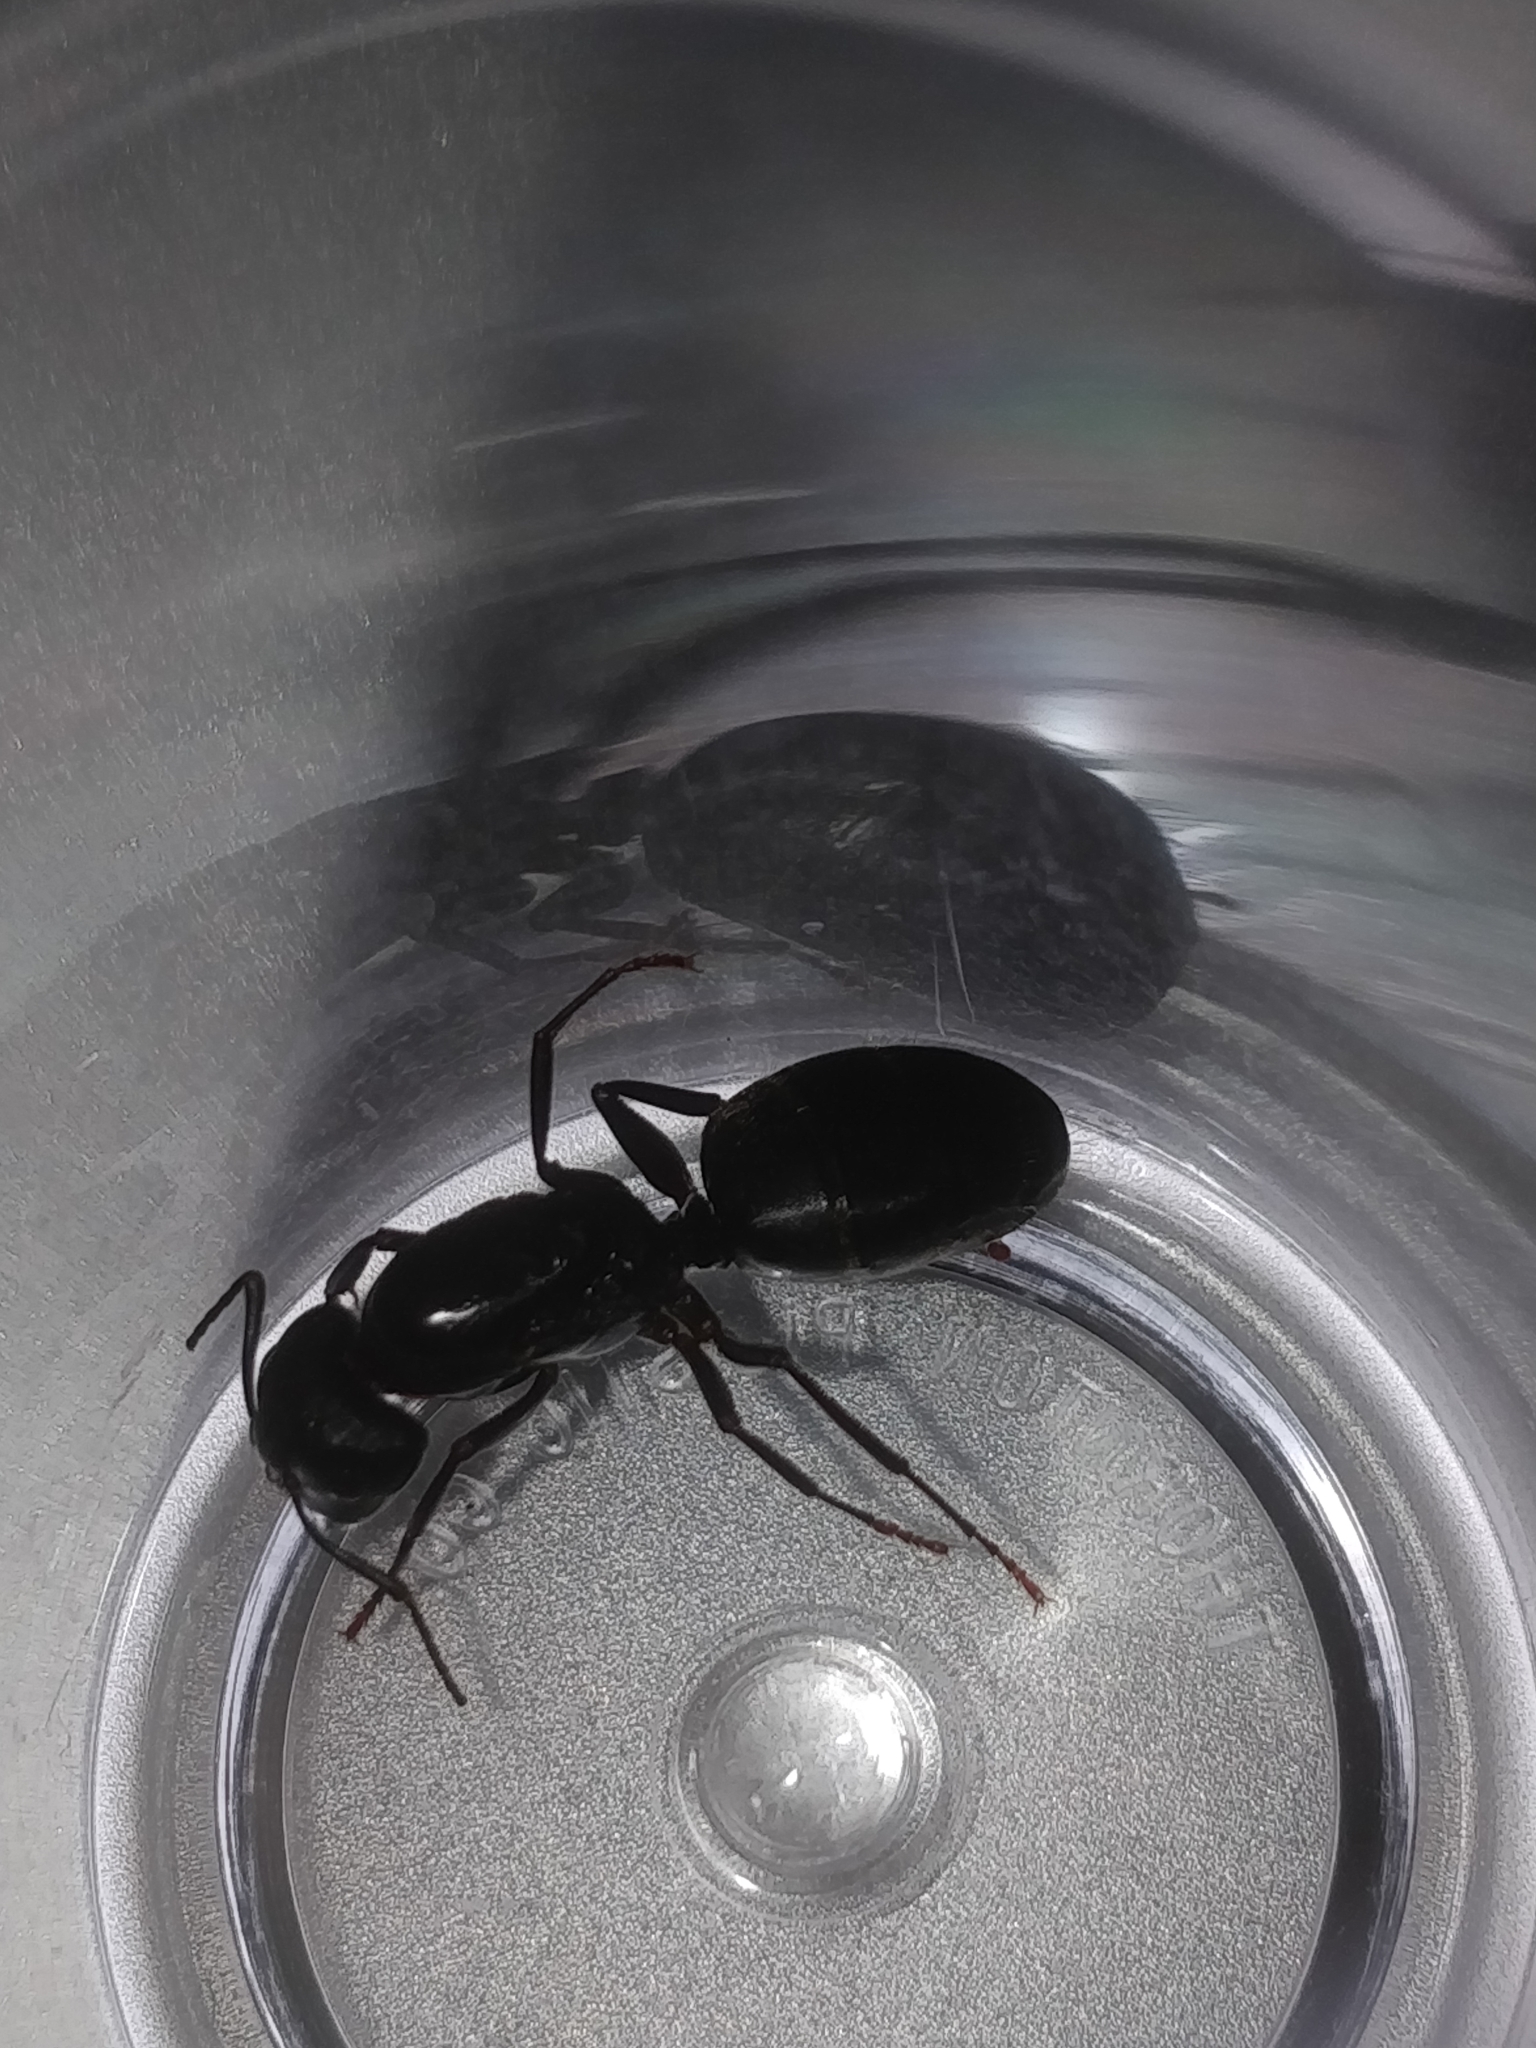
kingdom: Animalia
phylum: Arthropoda
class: Insecta
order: Hymenoptera
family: Formicidae
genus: Camponotus
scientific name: Camponotus pennsylvanicus
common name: Black carpenter ant
